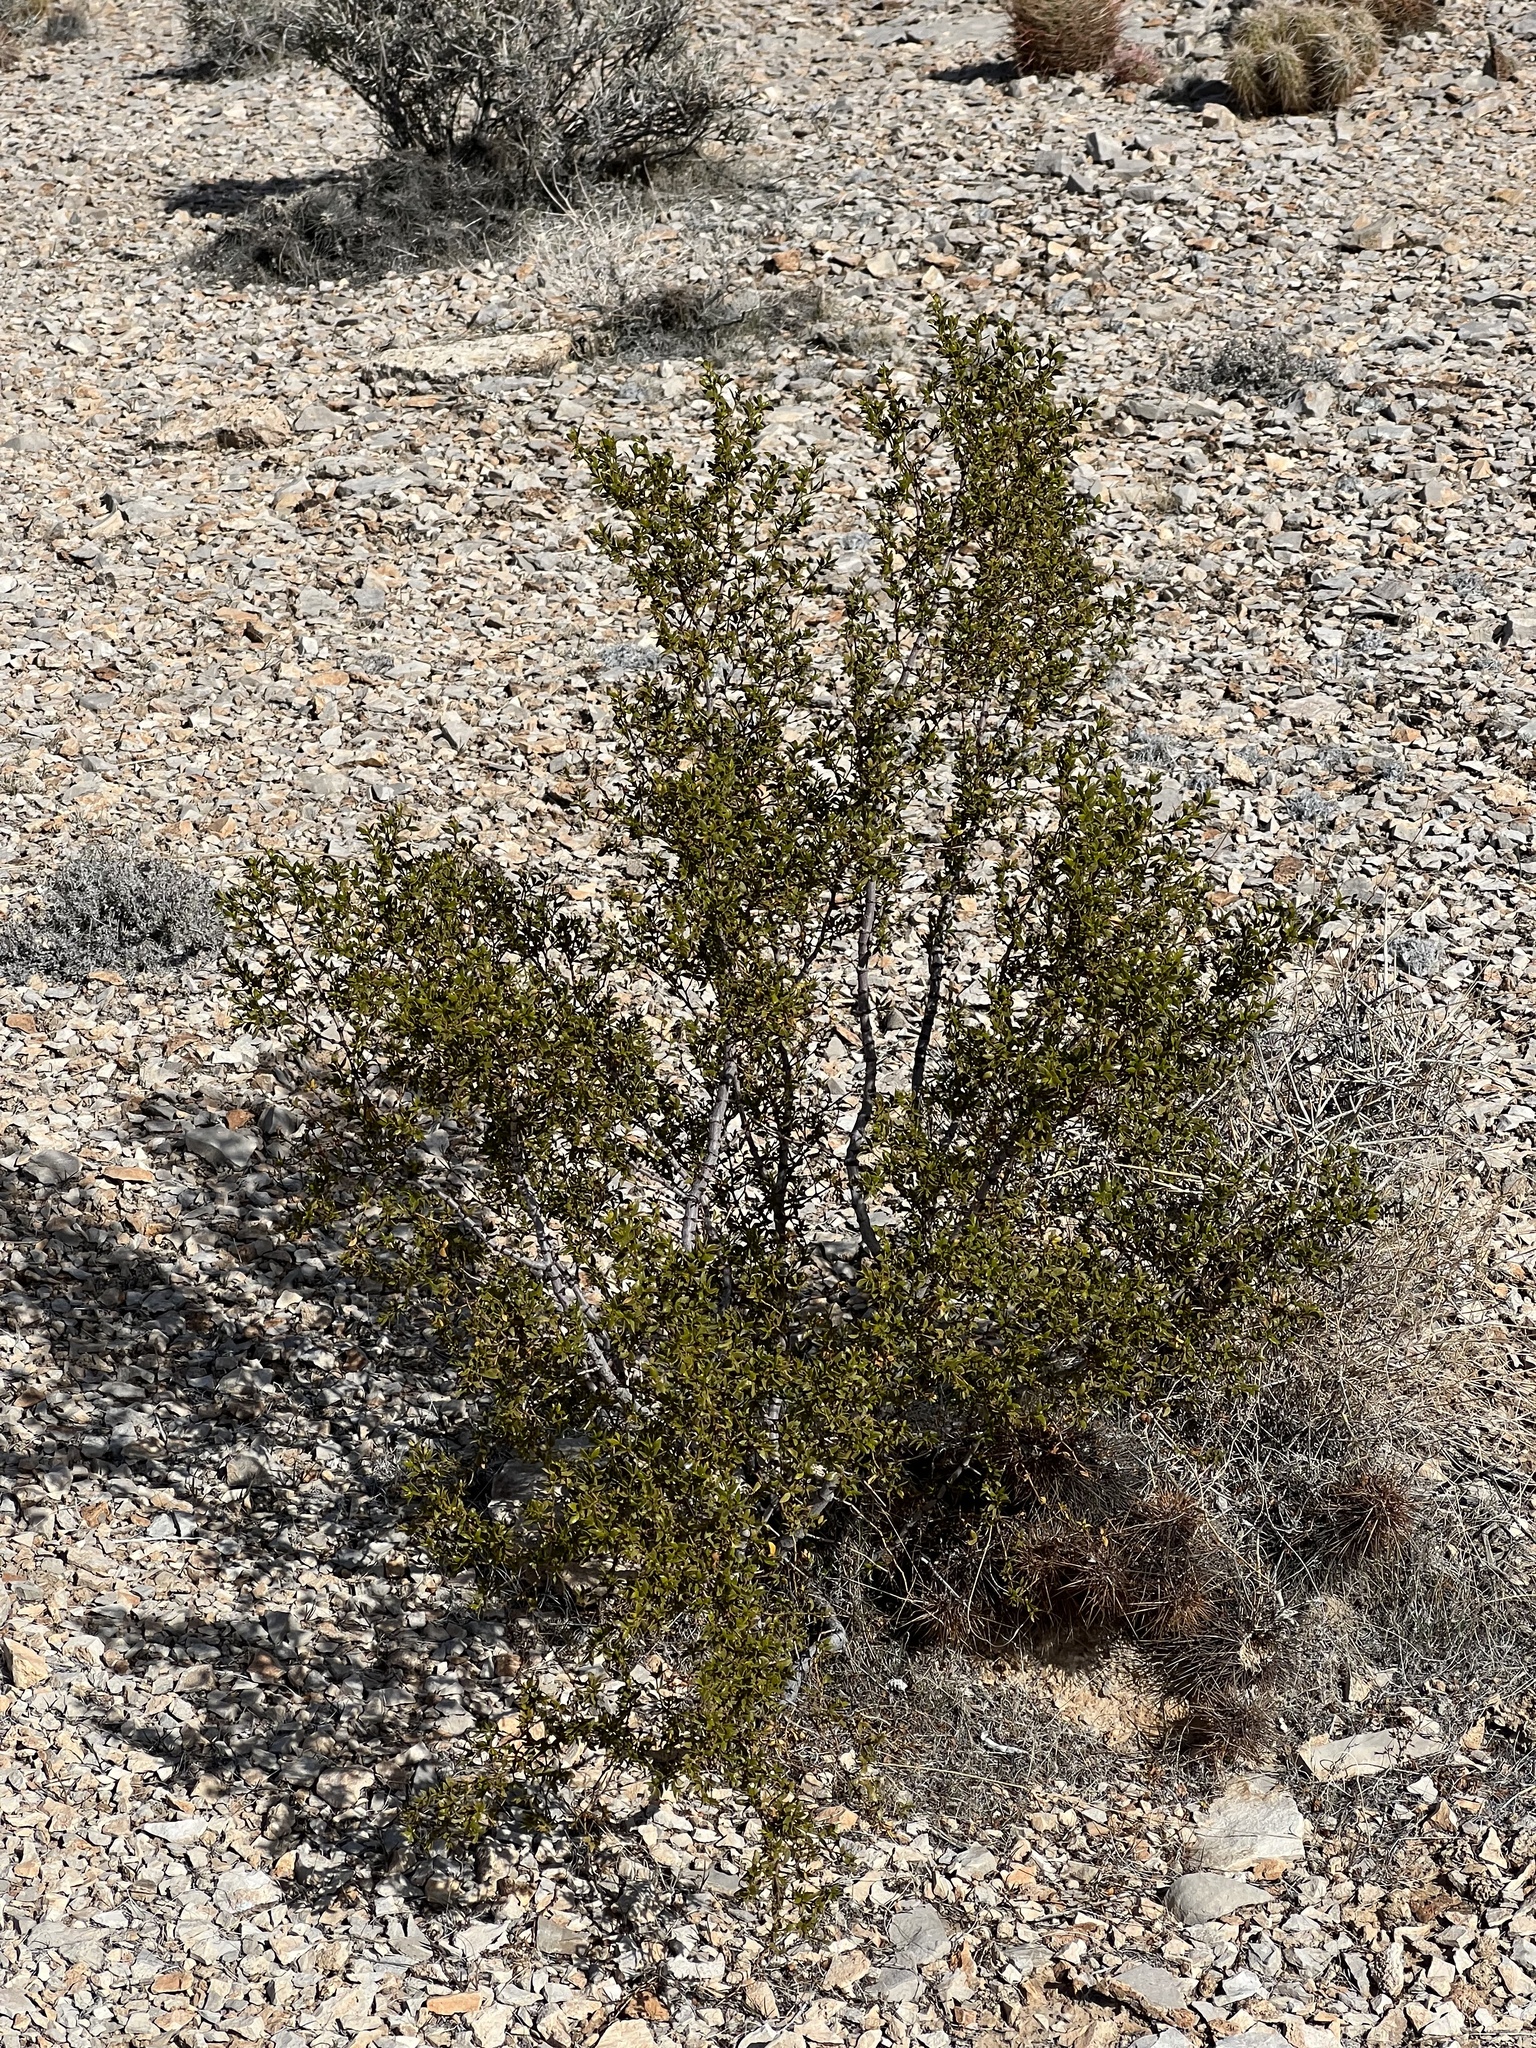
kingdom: Plantae
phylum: Tracheophyta
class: Magnoliopsida
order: Zygophyllales
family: Zygophyllaceae
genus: Larrea
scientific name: Larrea tridentata
